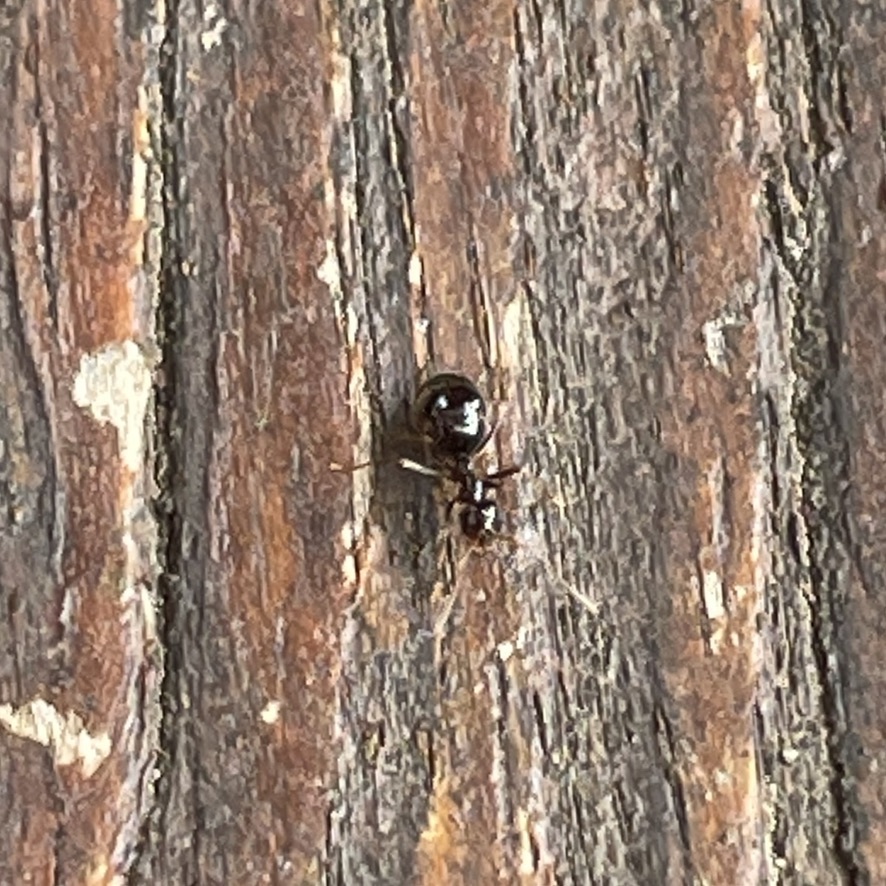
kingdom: Animalia
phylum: Arthropoda
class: Insecta
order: Hymenoptera
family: Formicidae
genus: Prenolepis
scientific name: Prenolepis imparis
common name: Small honey ant
